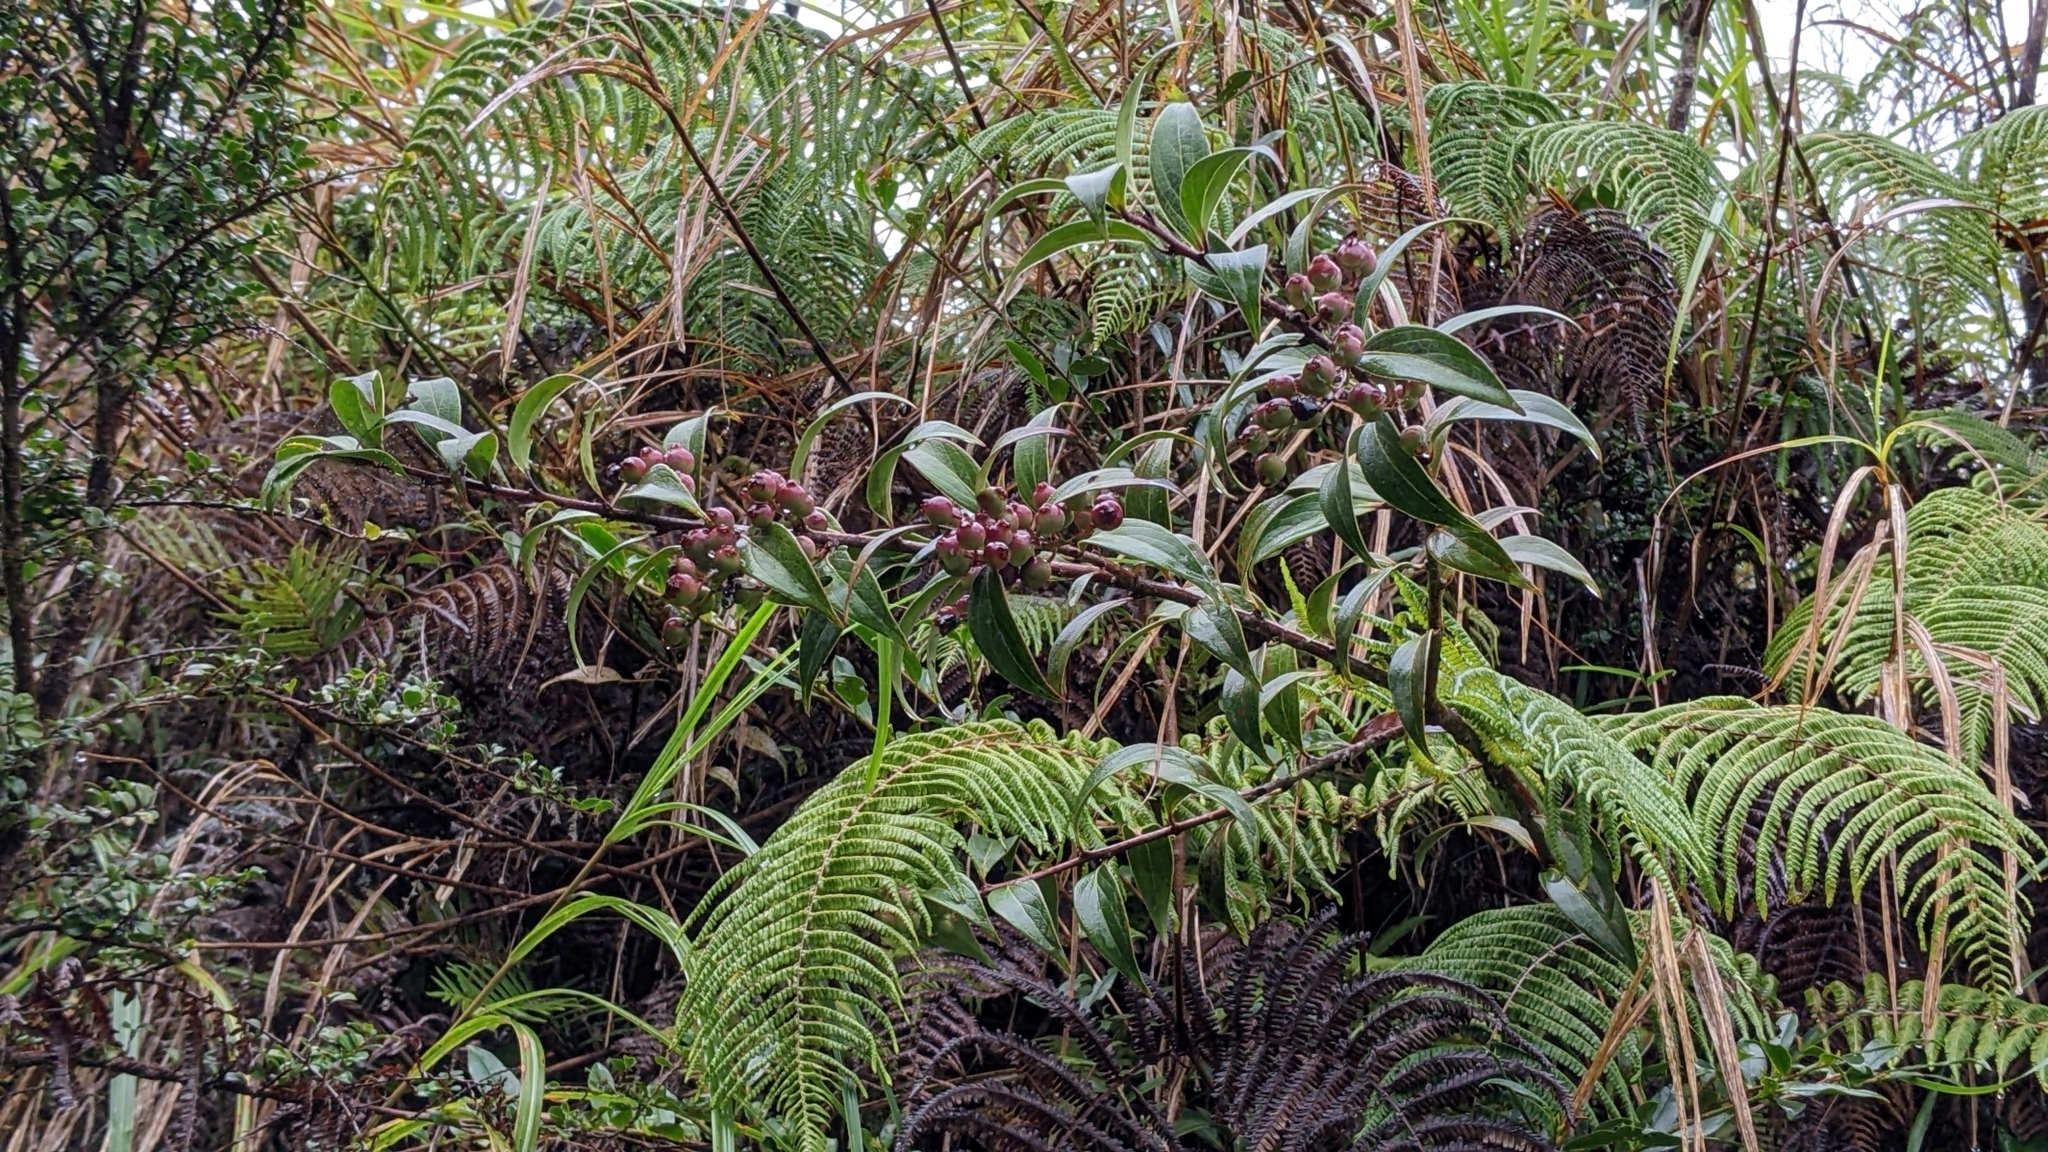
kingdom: Plantae
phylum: Tracheophyta
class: Magnoliopsida
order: Ericales
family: Ericaceae
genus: Vaccinium
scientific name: Vaccinium dunalianum
